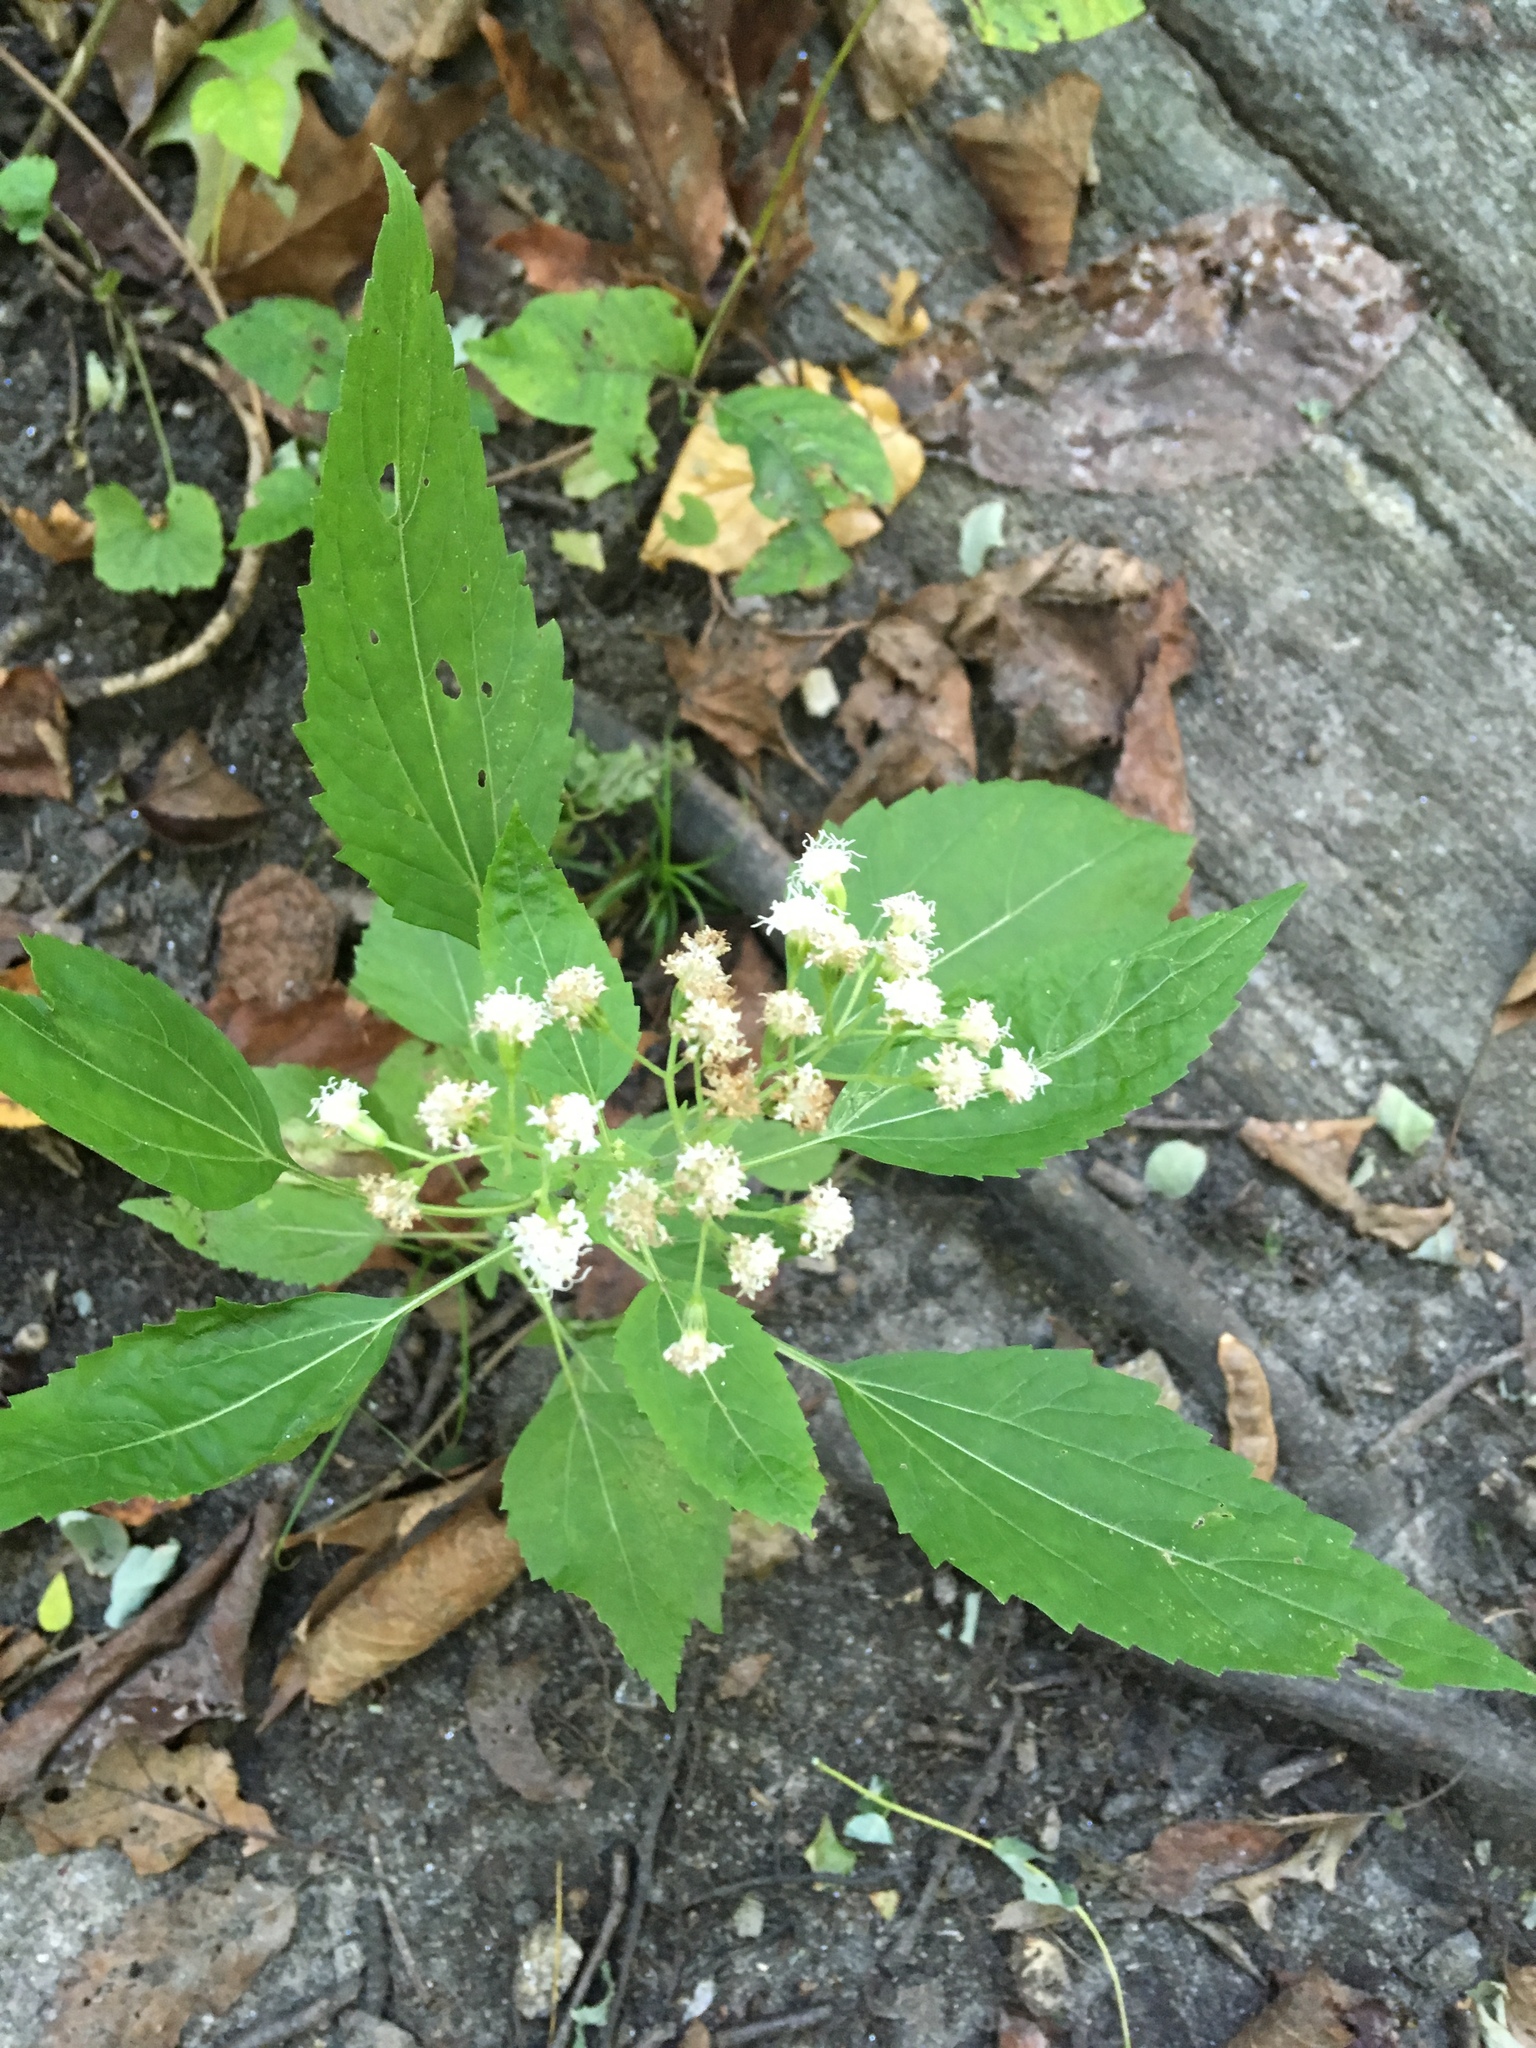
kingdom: Plantae
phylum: Tracheophyta
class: Magnoliopsida
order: Asterales
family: Asteraceae
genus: Ageratina
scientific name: Ageratina altissima
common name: White snakeroot
